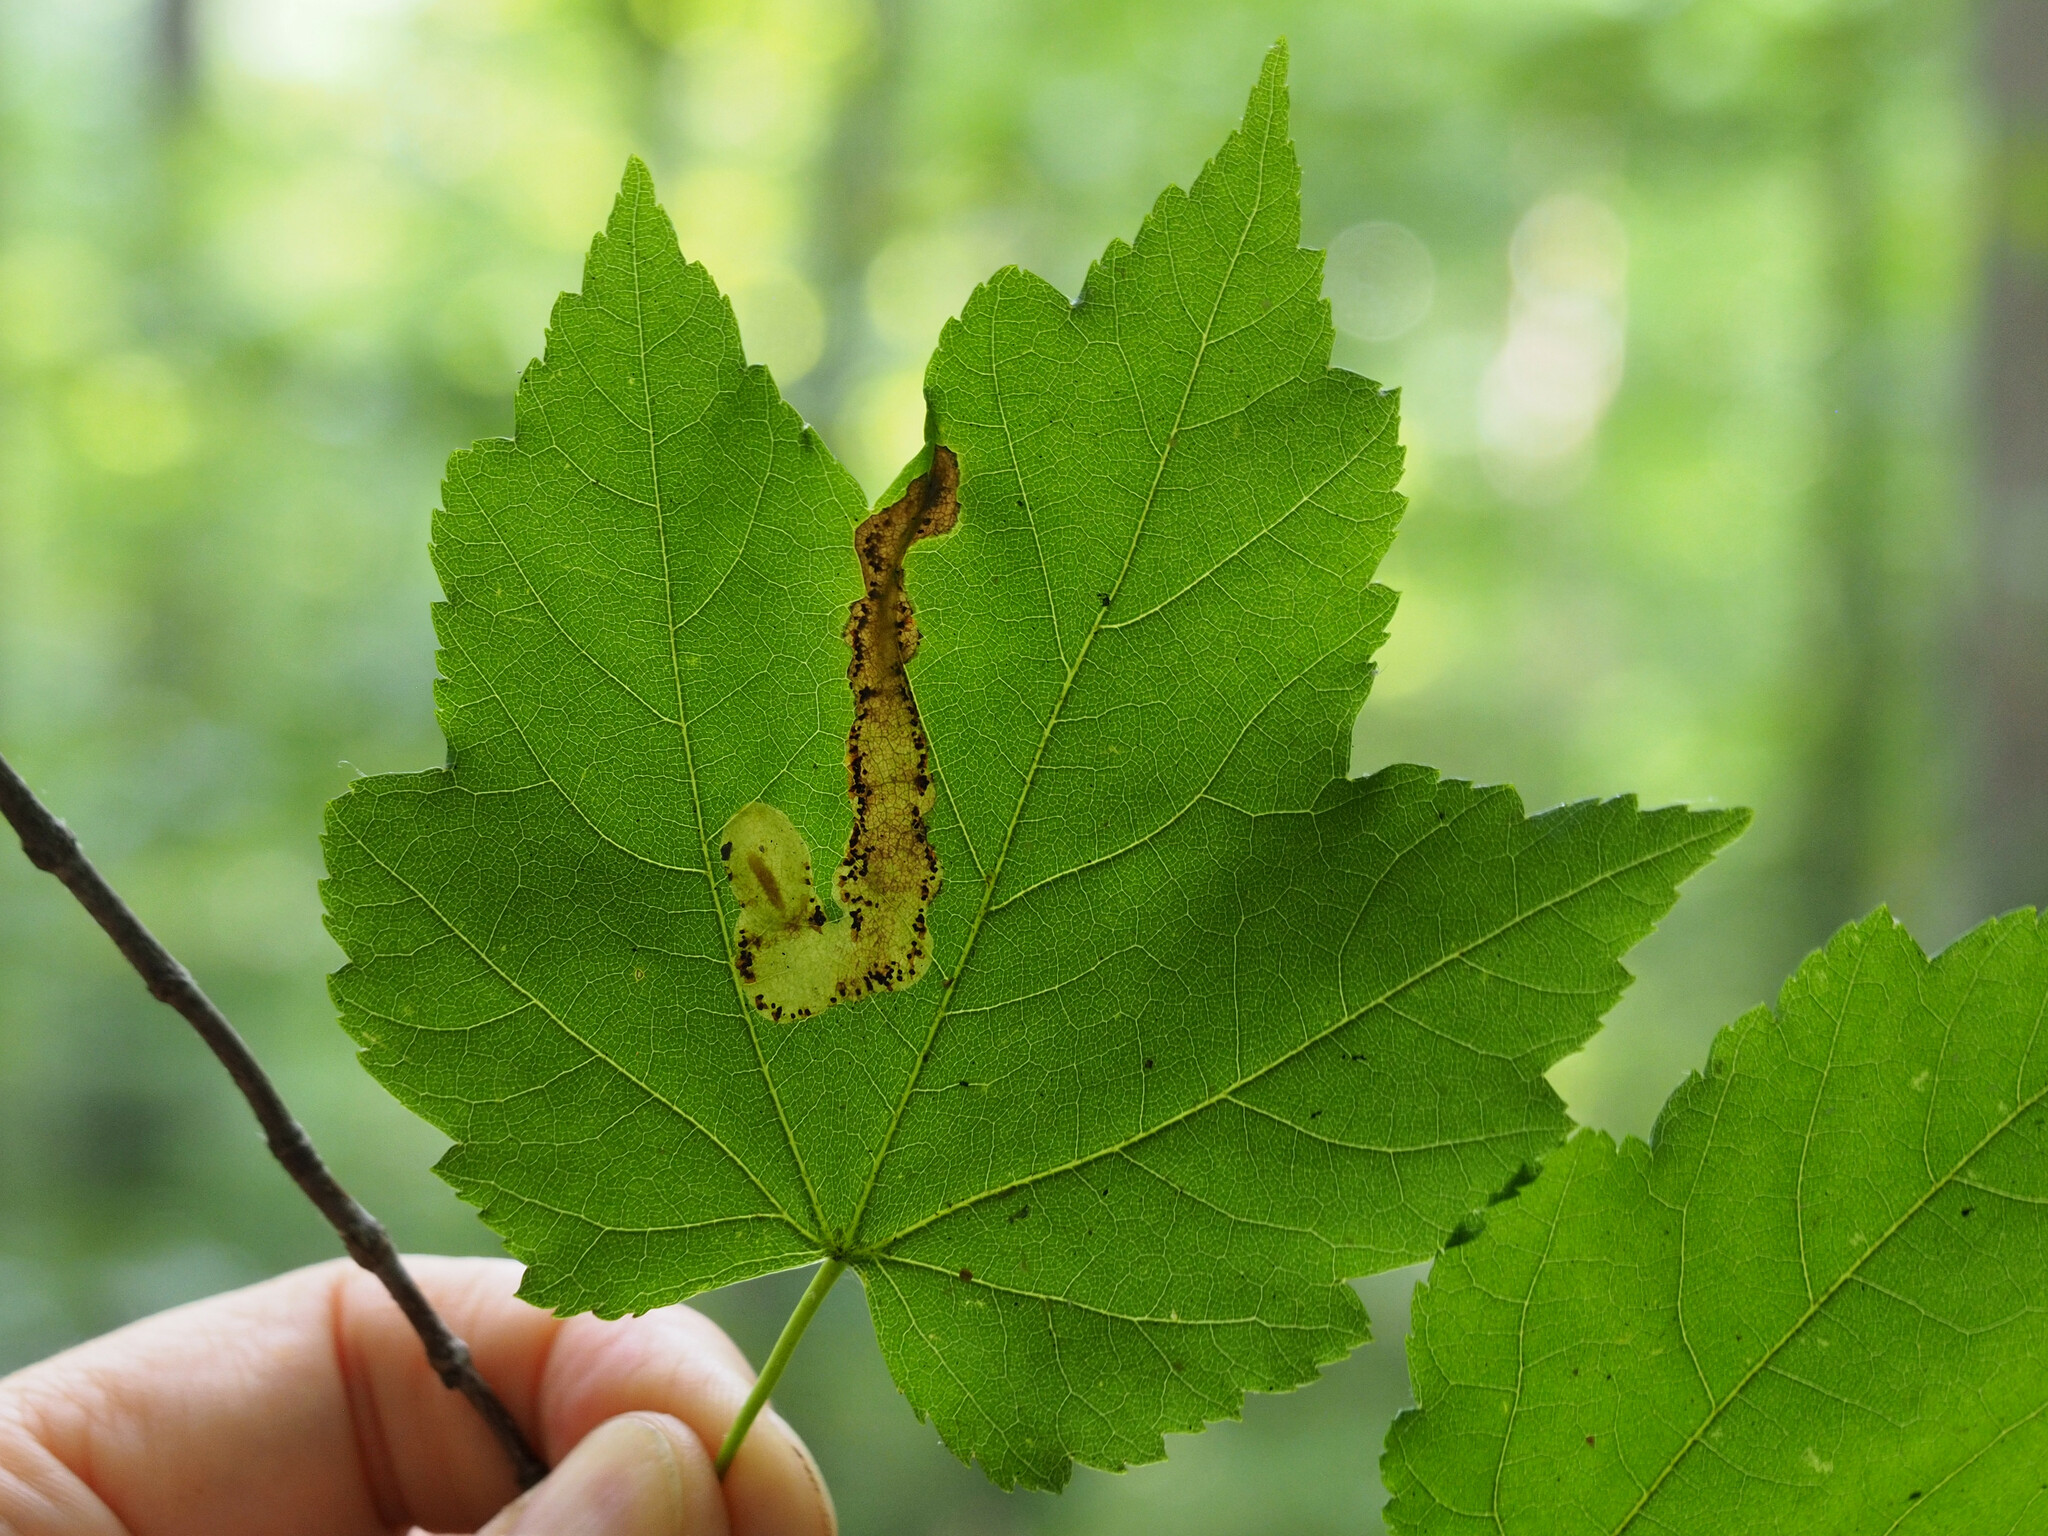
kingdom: Animalia
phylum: Arthropoda
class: Insecta
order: Lepidoptera
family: Gracillariidae
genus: Cameraria
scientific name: Cameraria aceriella
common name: Maple leafblotch miner
